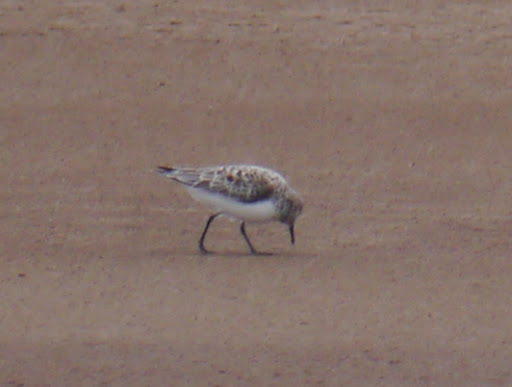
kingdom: Animalia
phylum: Chordata
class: Aves
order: Charadriiformes
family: Scolopacidae
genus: Calidris
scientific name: Calidris alba
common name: Sanderling
